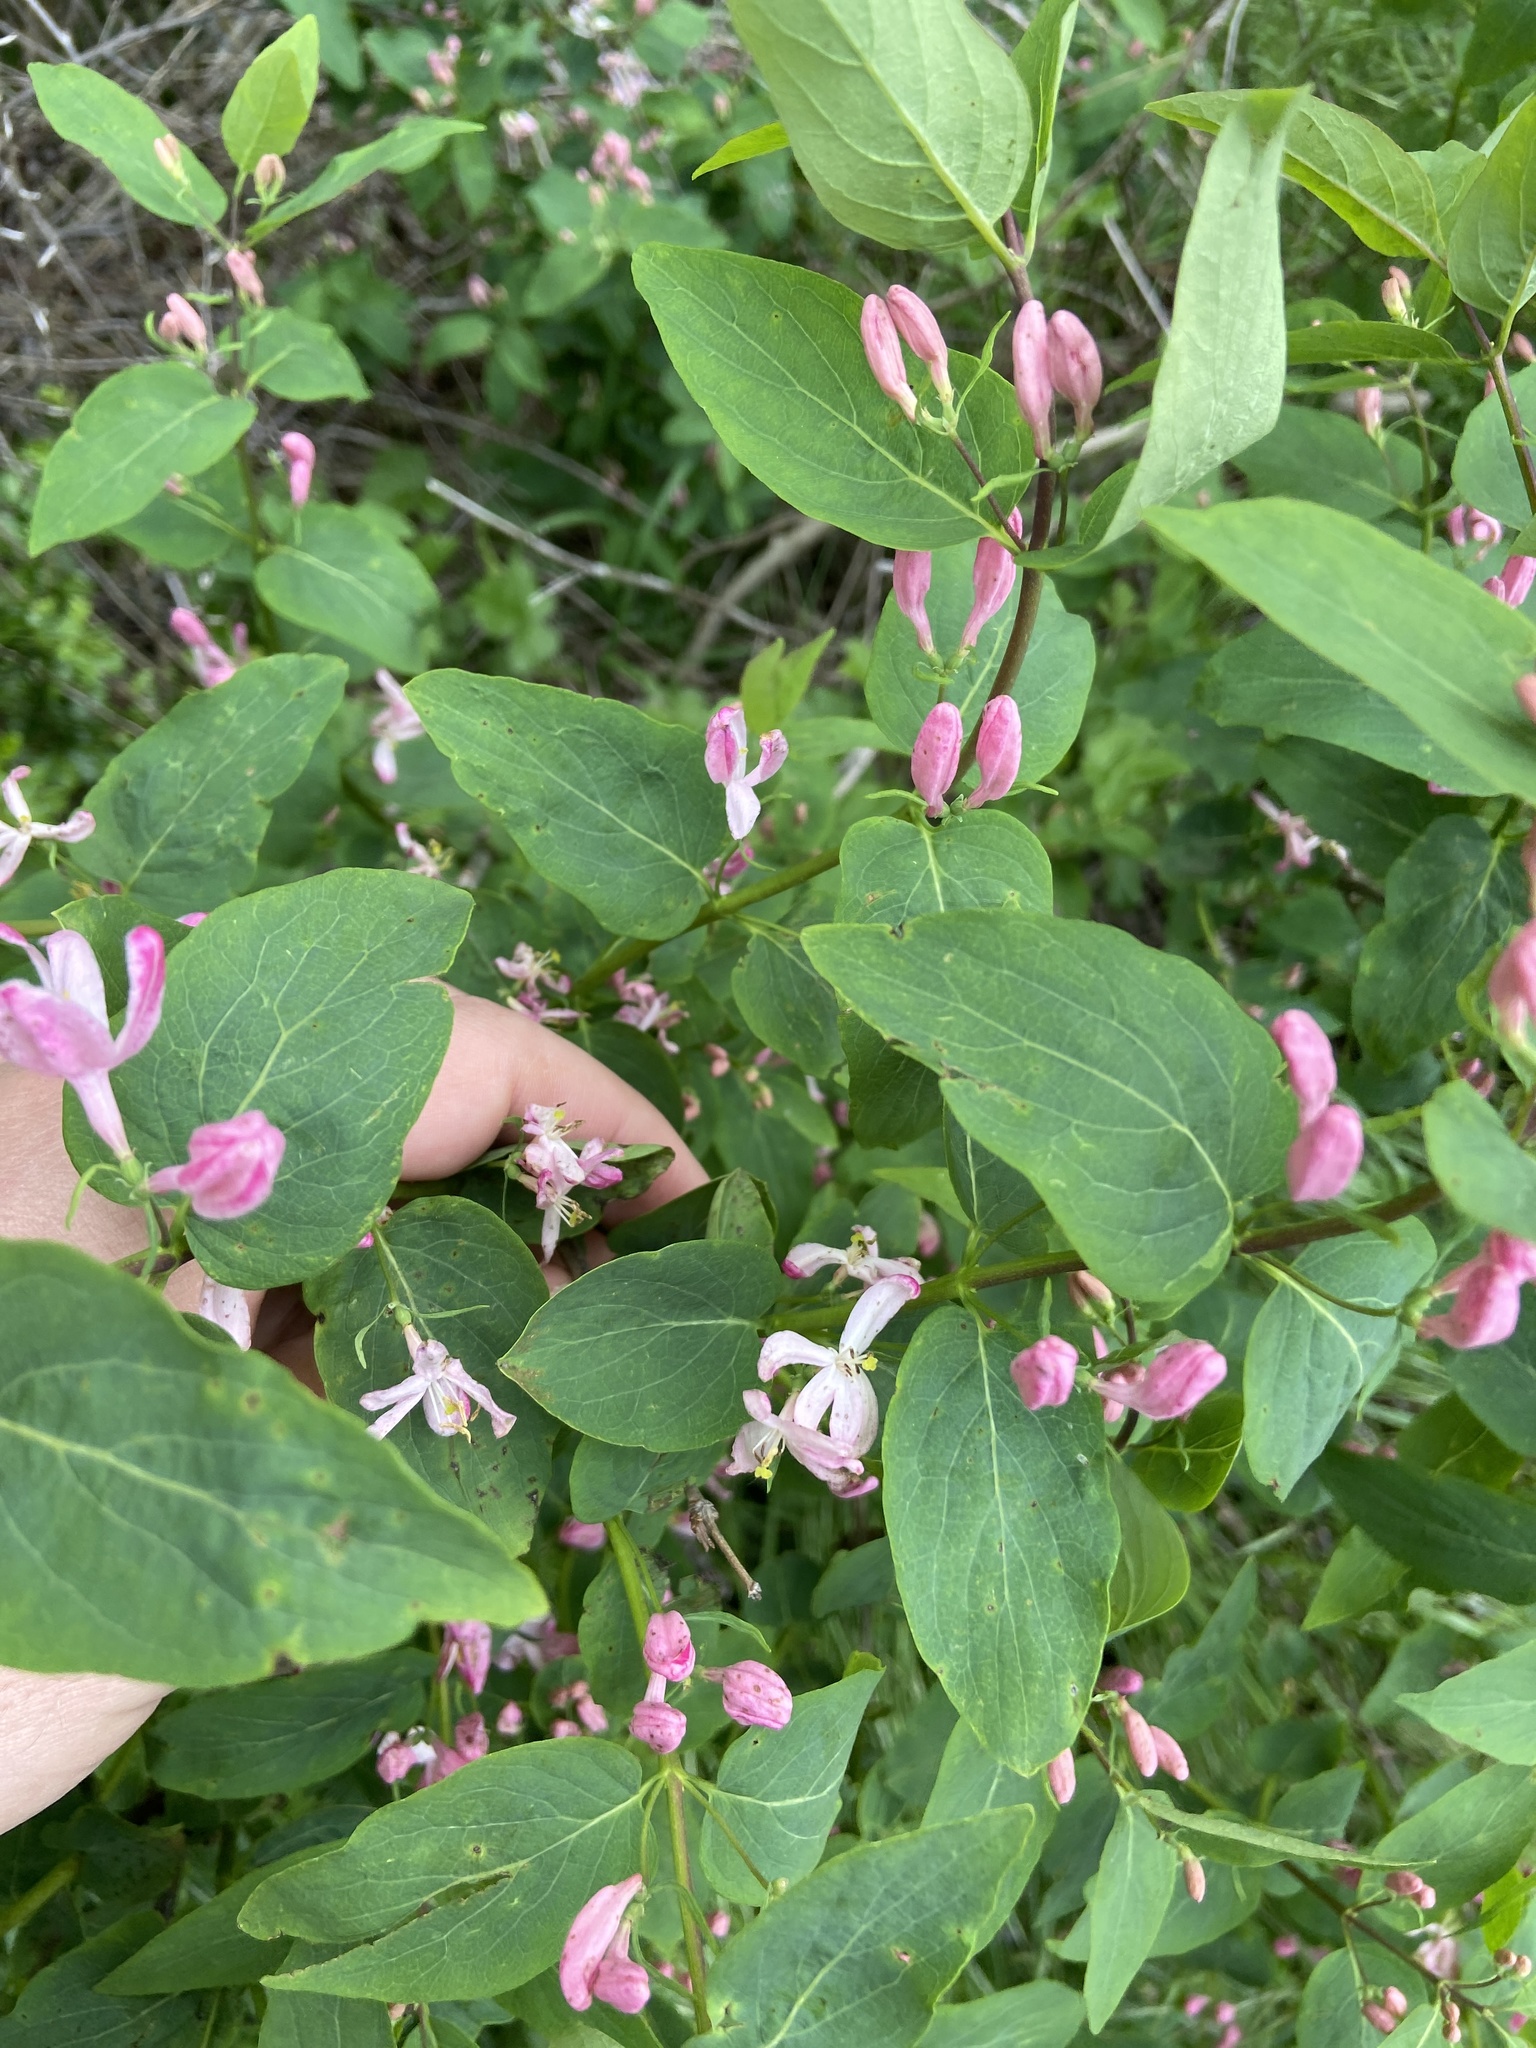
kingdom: Plantae
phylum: Tracheophyta
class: Magnoliopsida
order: Dipsacales
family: Caprifoliaceae
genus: Lonicera
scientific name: Lonicera tatarica
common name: Tatarian honeysuckle
